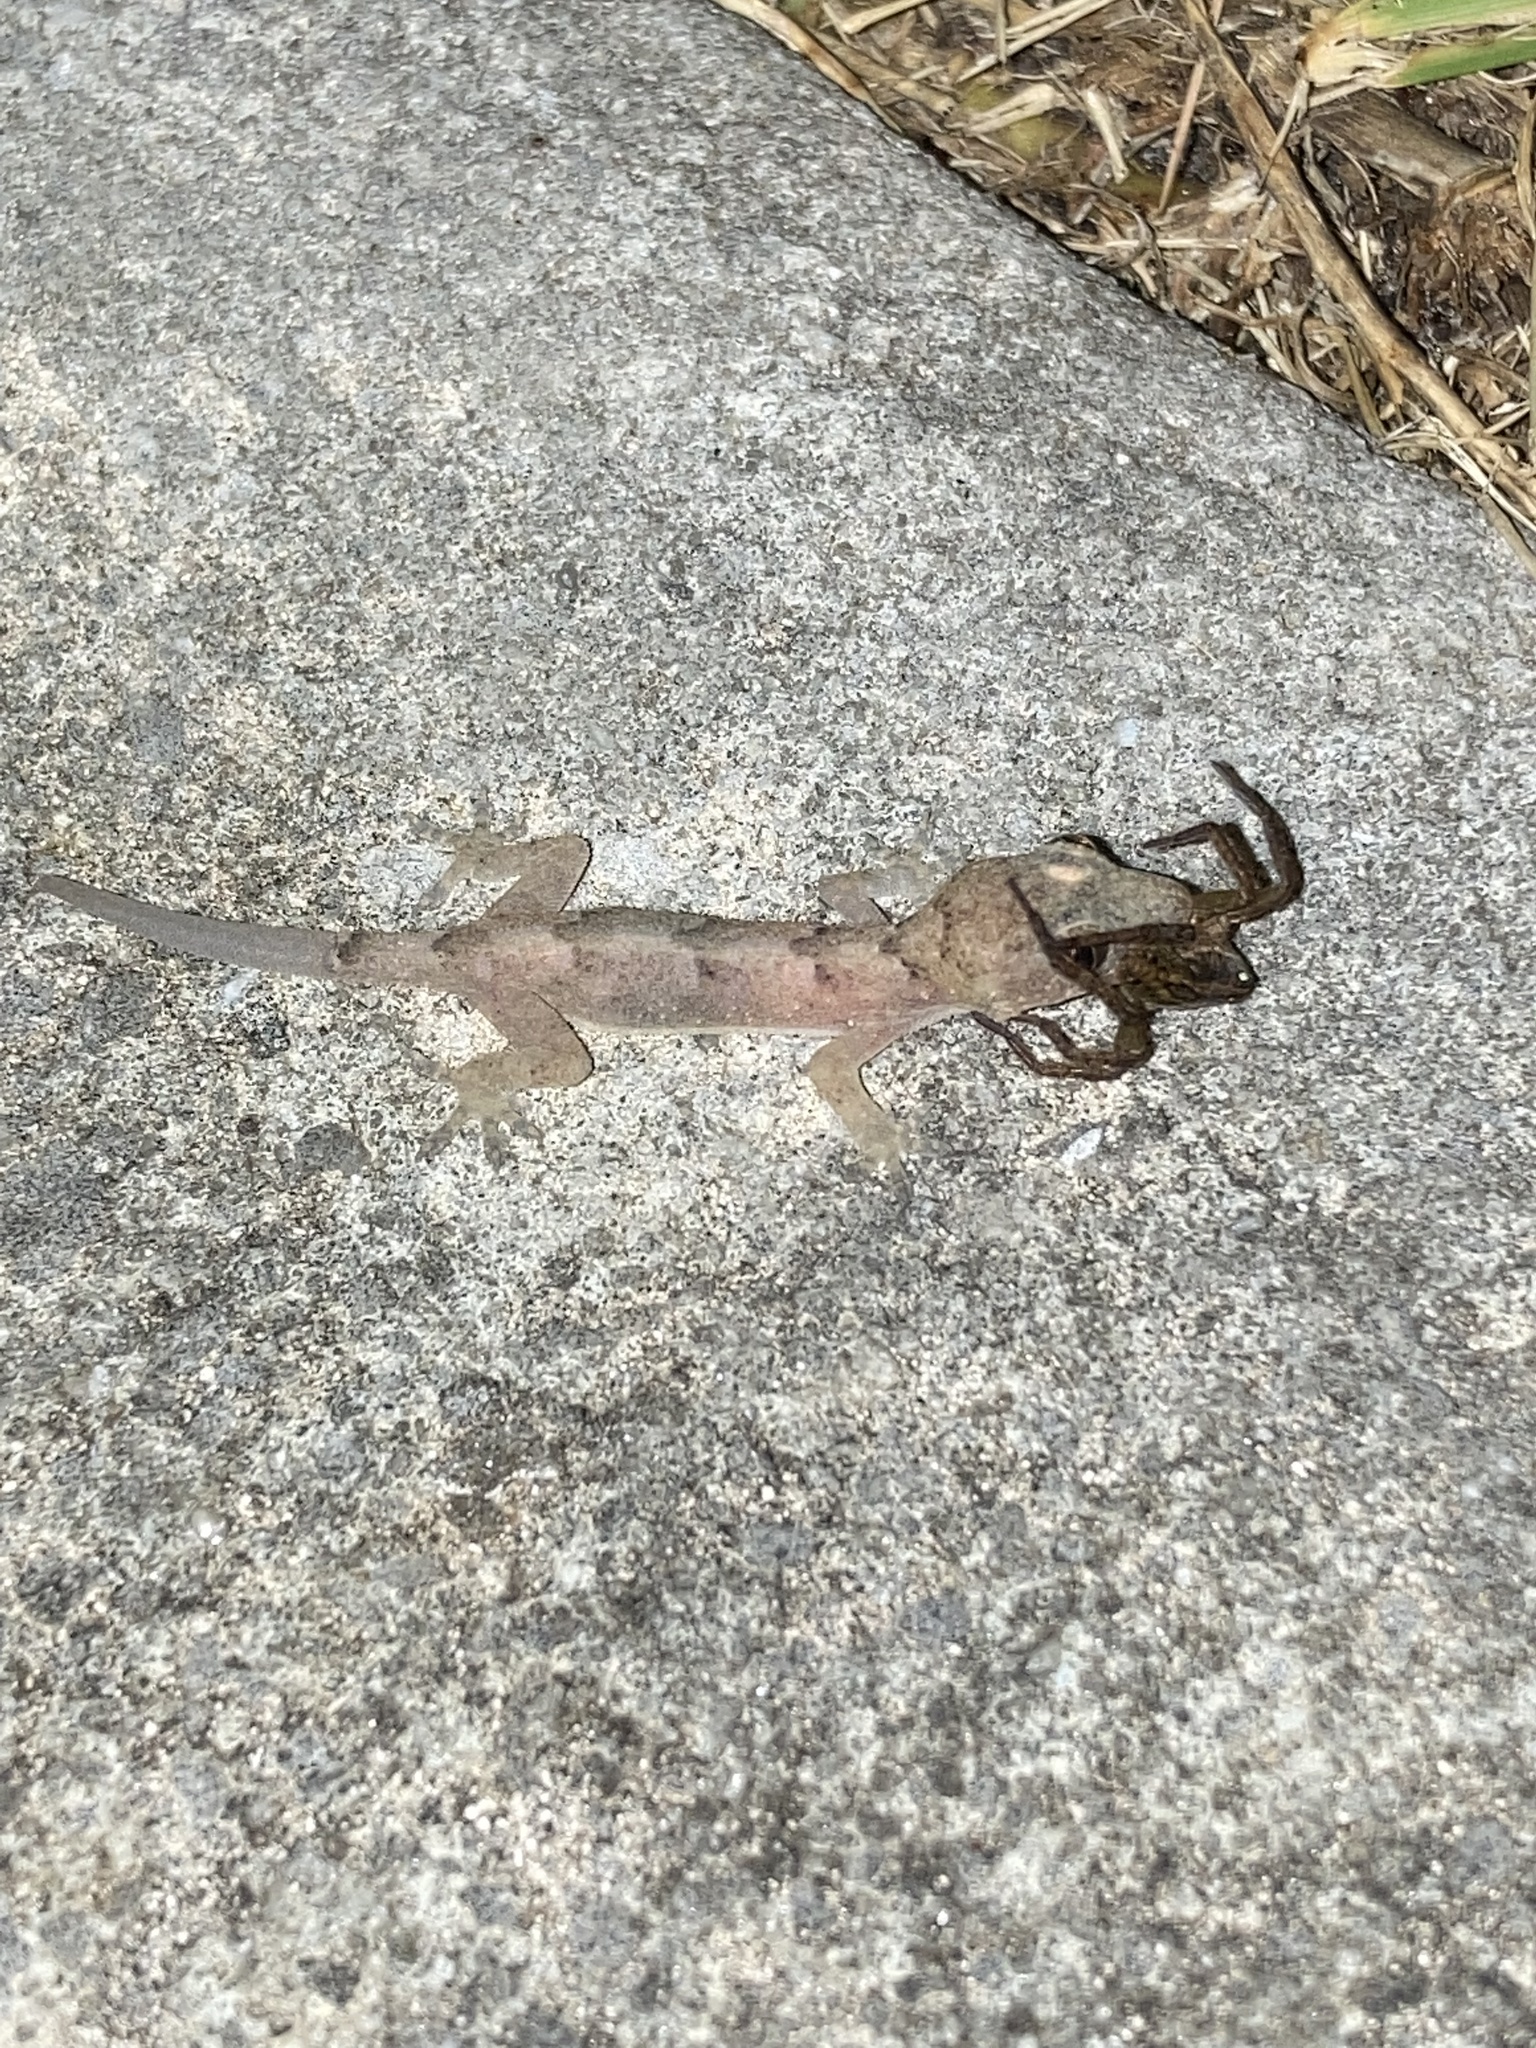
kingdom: Animalia
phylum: Chordata
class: Squamata
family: Gekkonidae
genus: Hemidactylus
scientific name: Hemidactylus mabouia
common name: House gecko
